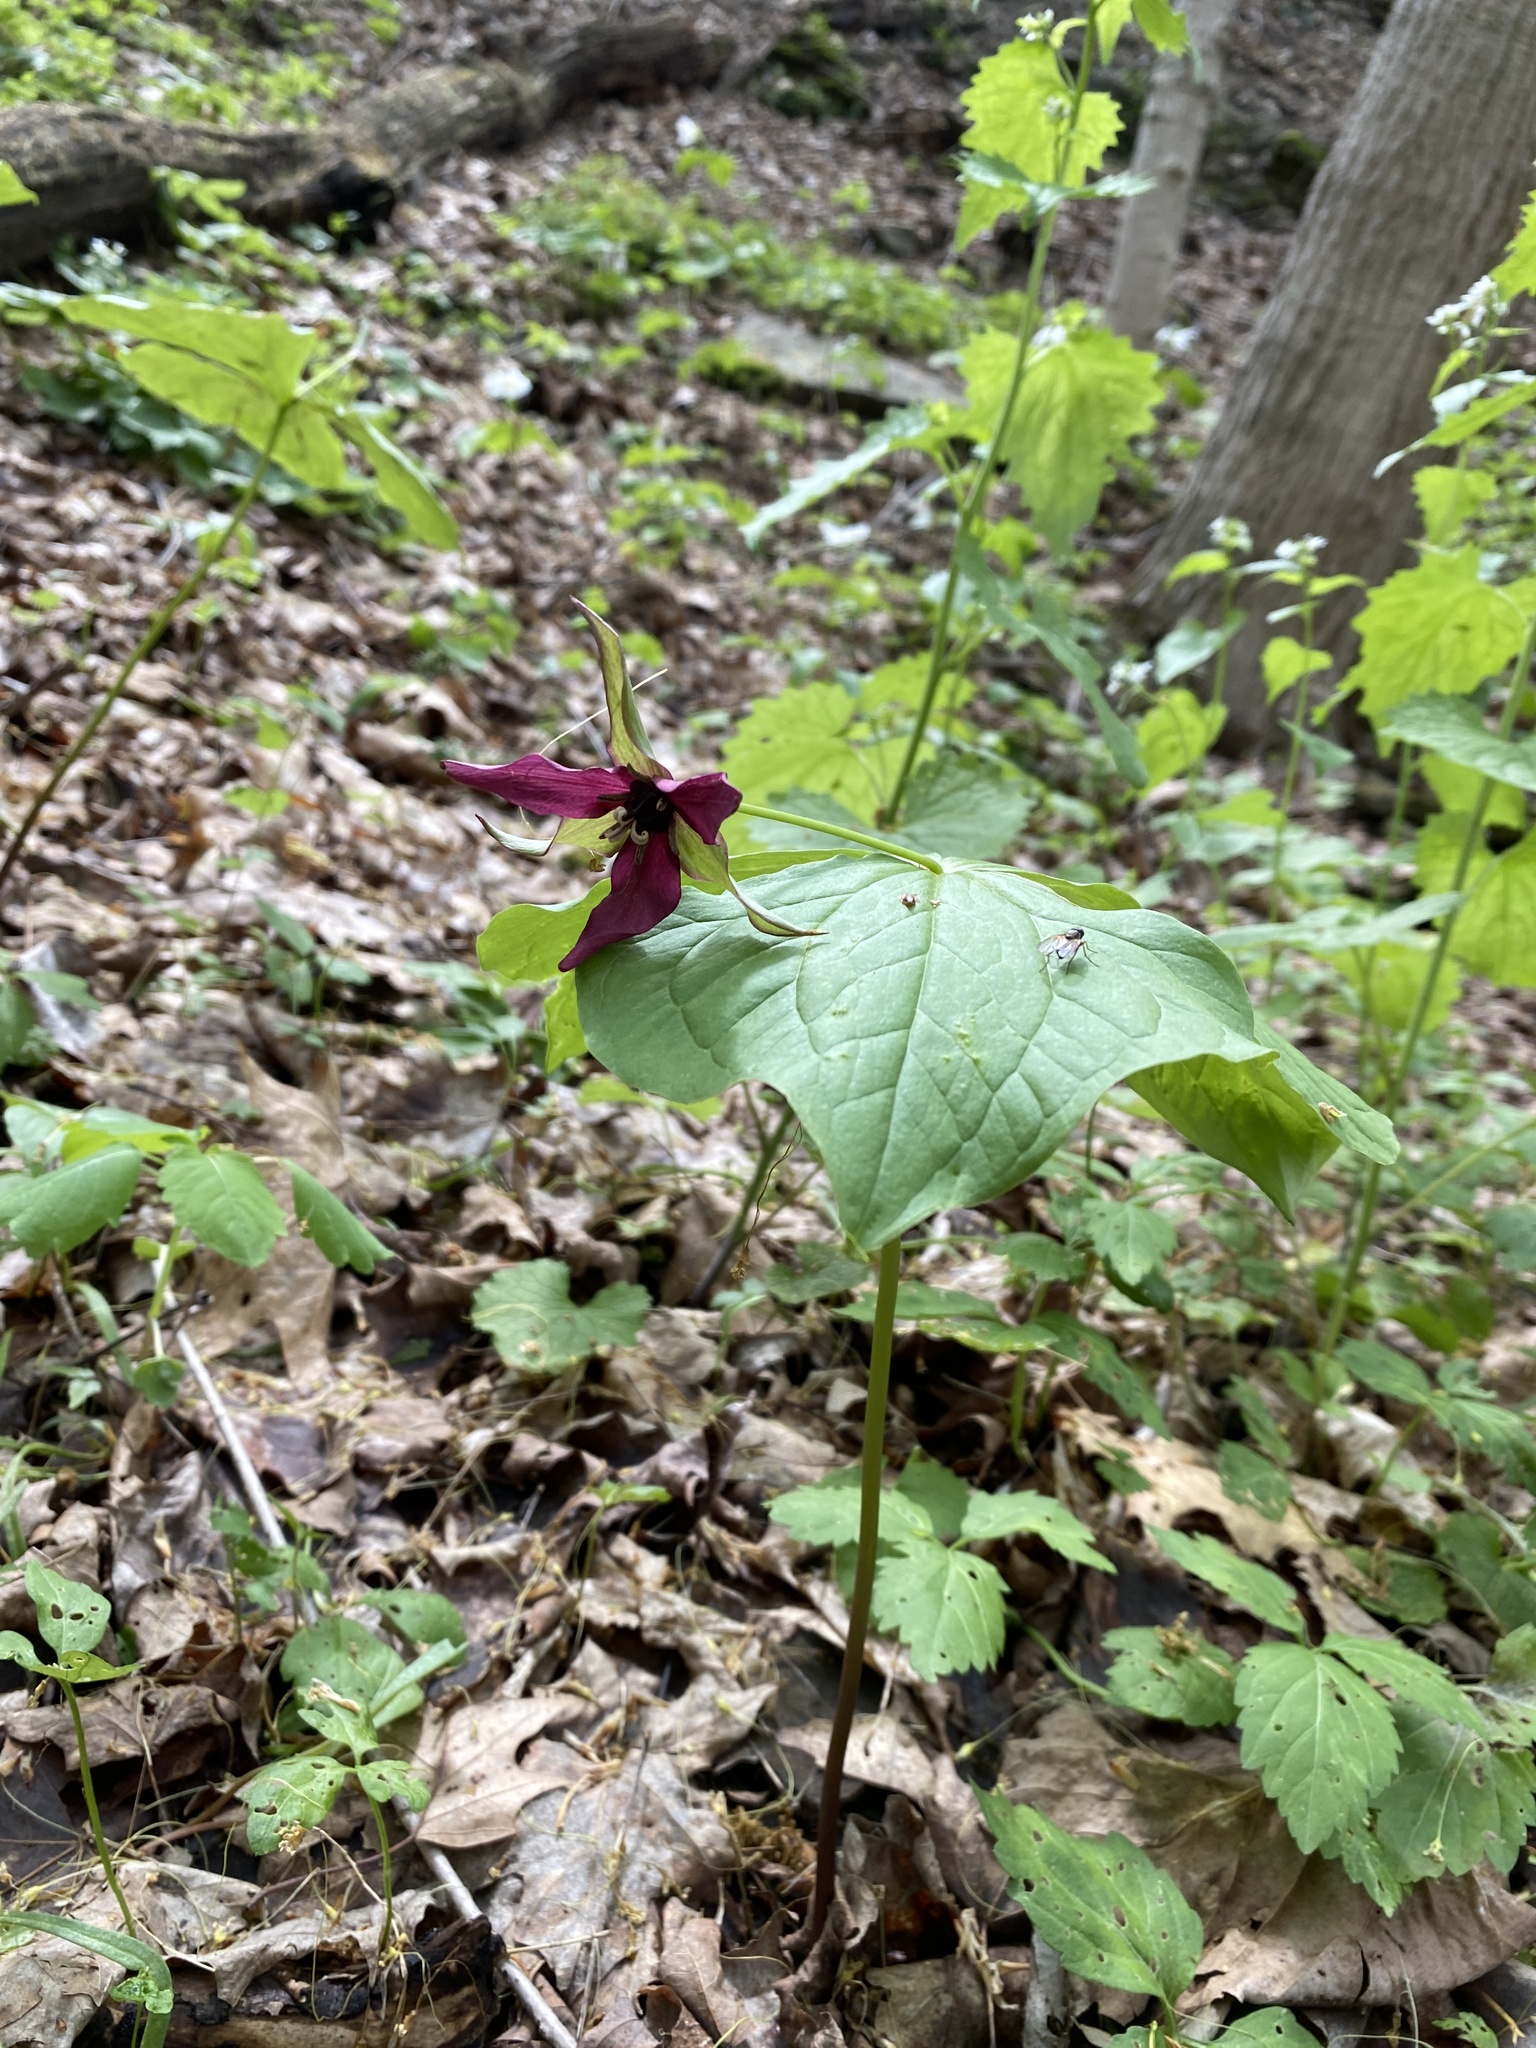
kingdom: Plantae
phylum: Tracheophyta
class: Liliopsida
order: Liliales
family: Melanthiaceae
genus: Trillium
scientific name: Trillium erectum
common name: Purple trillium
